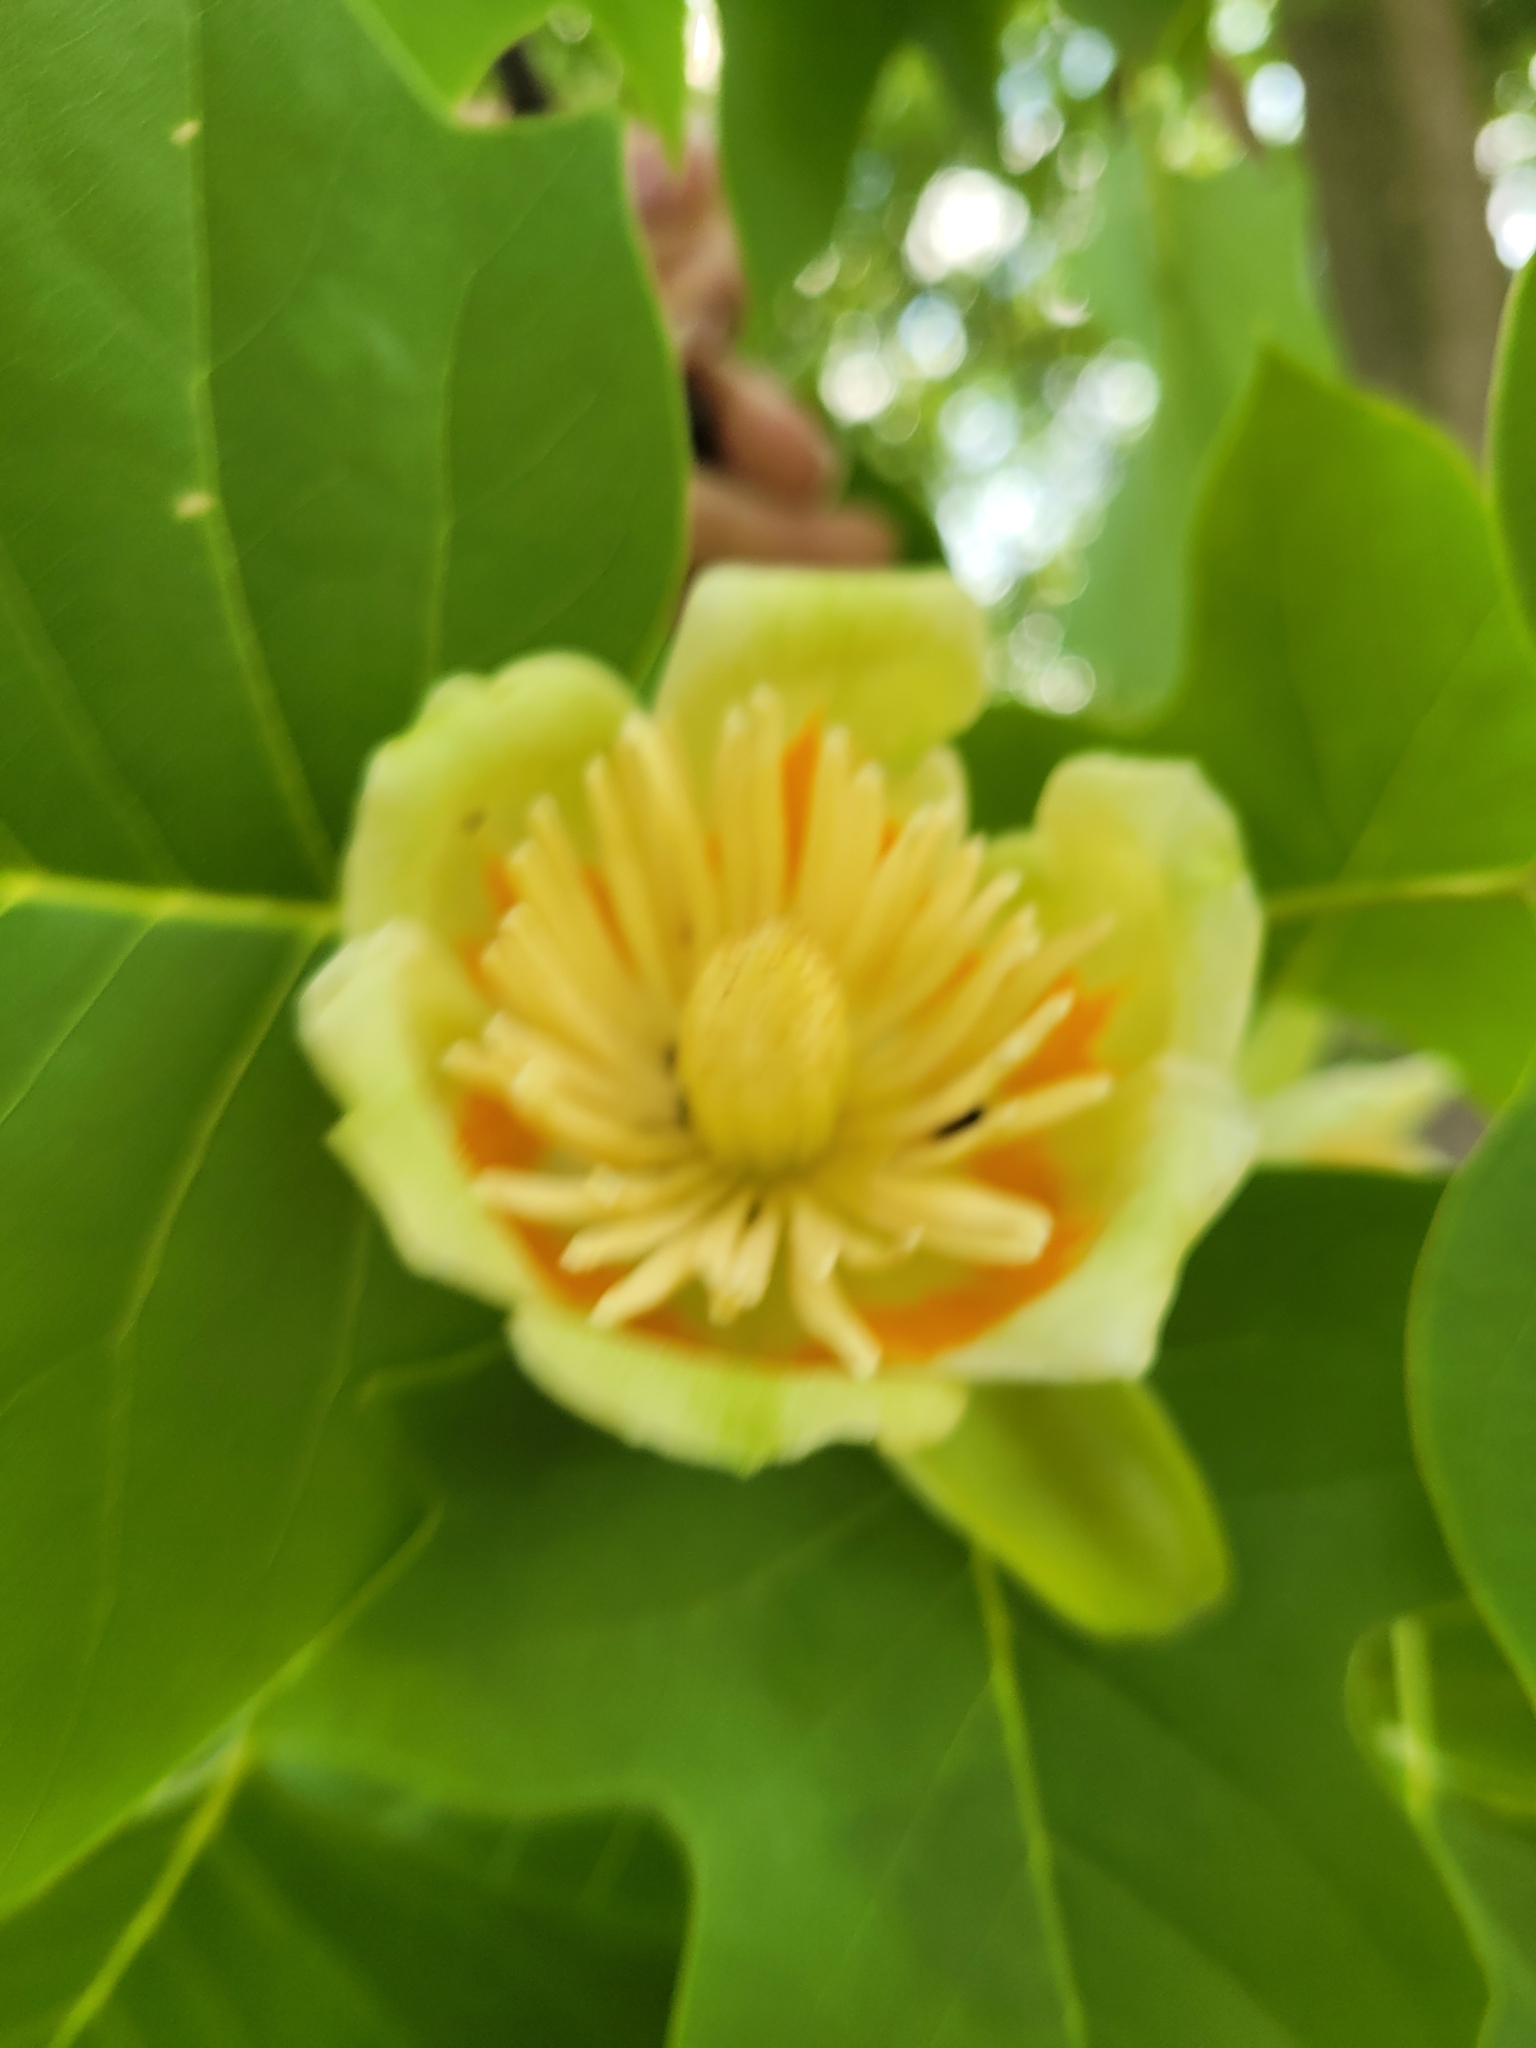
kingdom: Plantae
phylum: Tracheophyta
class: Magnoliopsida
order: Magnoliales
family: Magnoliaceae
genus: Liriodendron
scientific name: Liriodendron tulipifera
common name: Tulip tree
